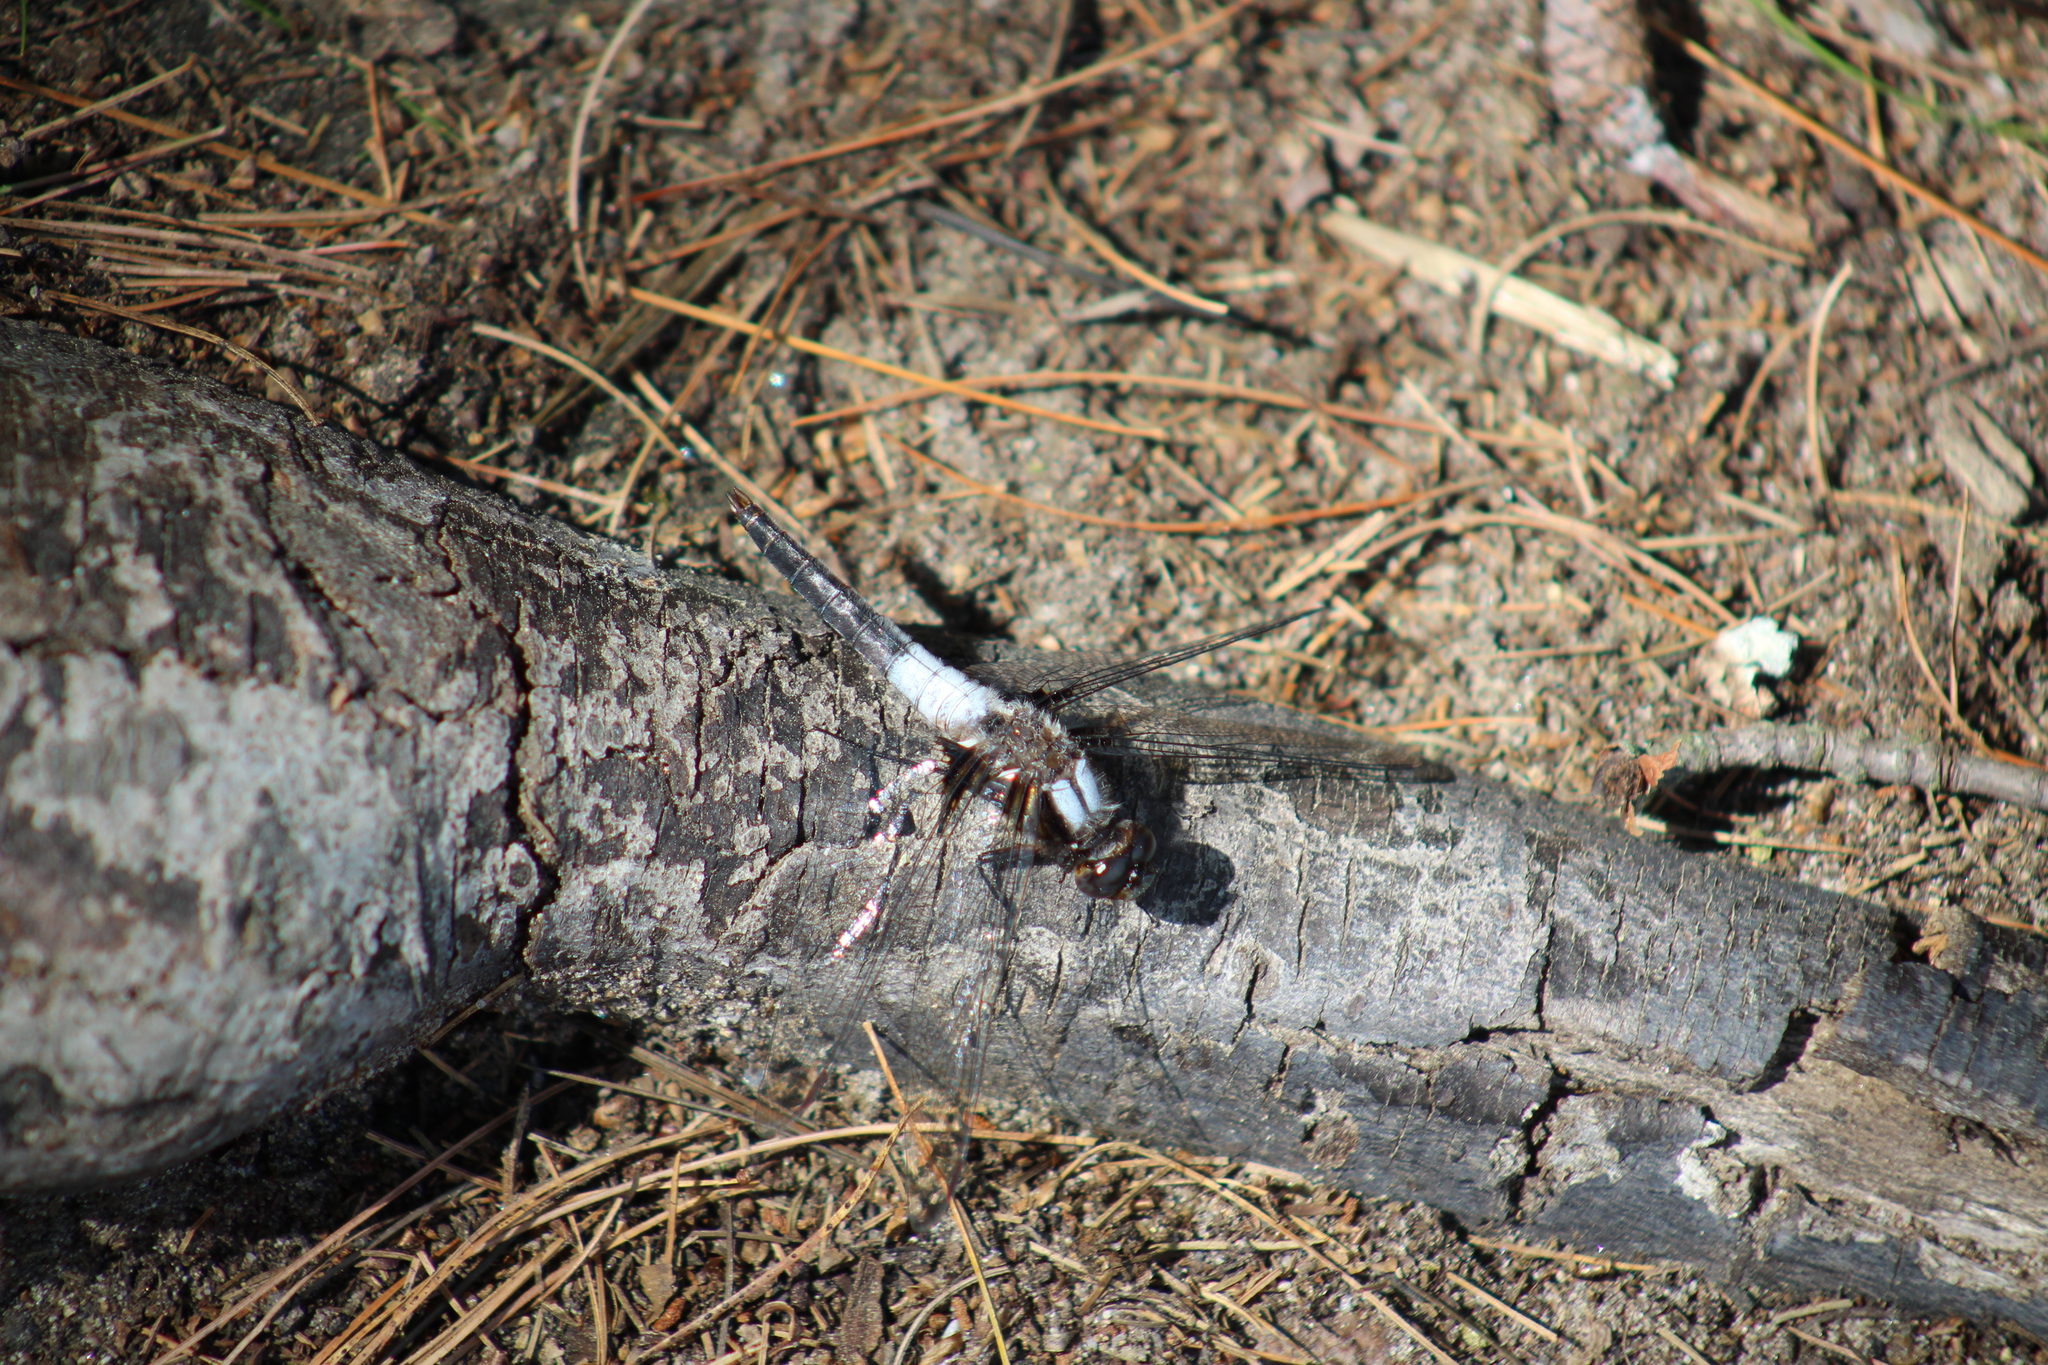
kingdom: Animalia
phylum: Arthropoda
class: Insecta
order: Odonata
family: Libellulidae
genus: Ladona
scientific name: Ladona julia
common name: Chalk-fronted corporal
